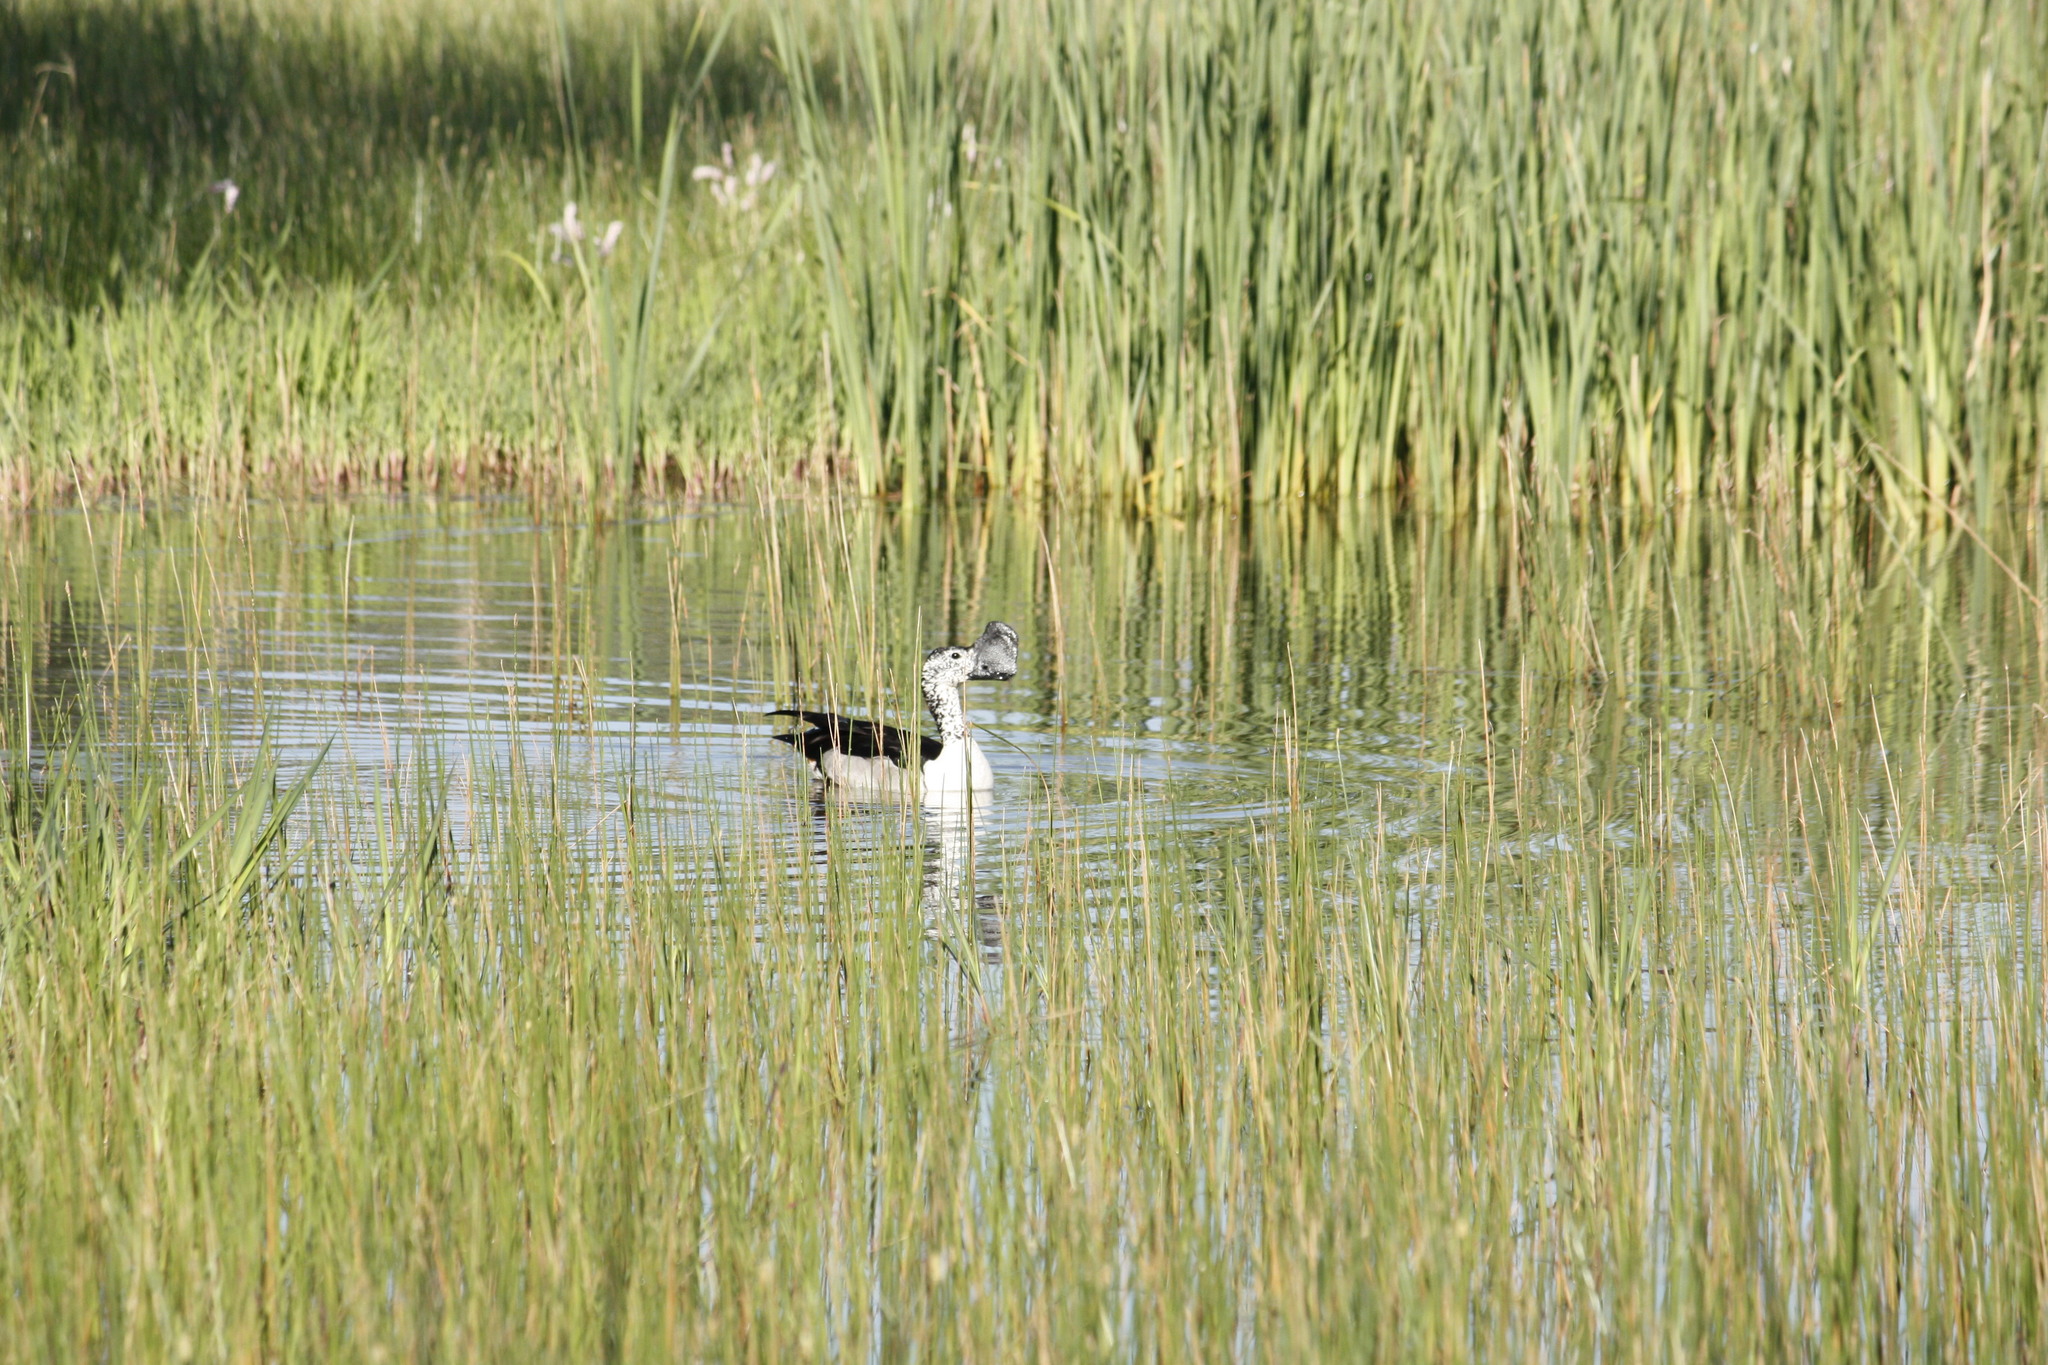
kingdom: Animalia
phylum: Chordata
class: Aves
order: Anseriformes
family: Anatidae
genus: Sarkidiornis
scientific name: Sarkidiornis melanotos
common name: Comb duck
